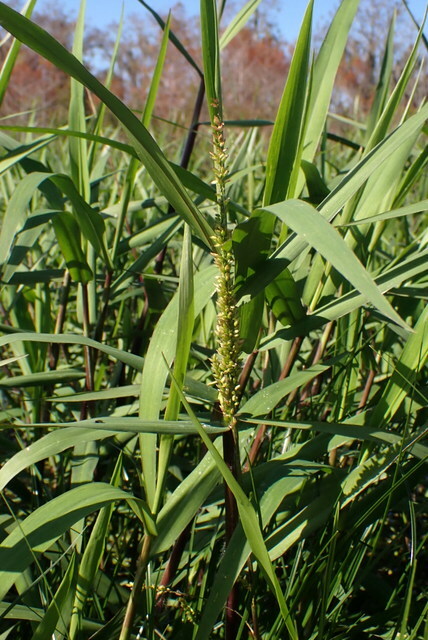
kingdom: Plantae
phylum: Tracheophyta
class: Liliopsida
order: Poales
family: Poaceae
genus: Sacciolepis
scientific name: Sacciolepis striata
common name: American cupscale
